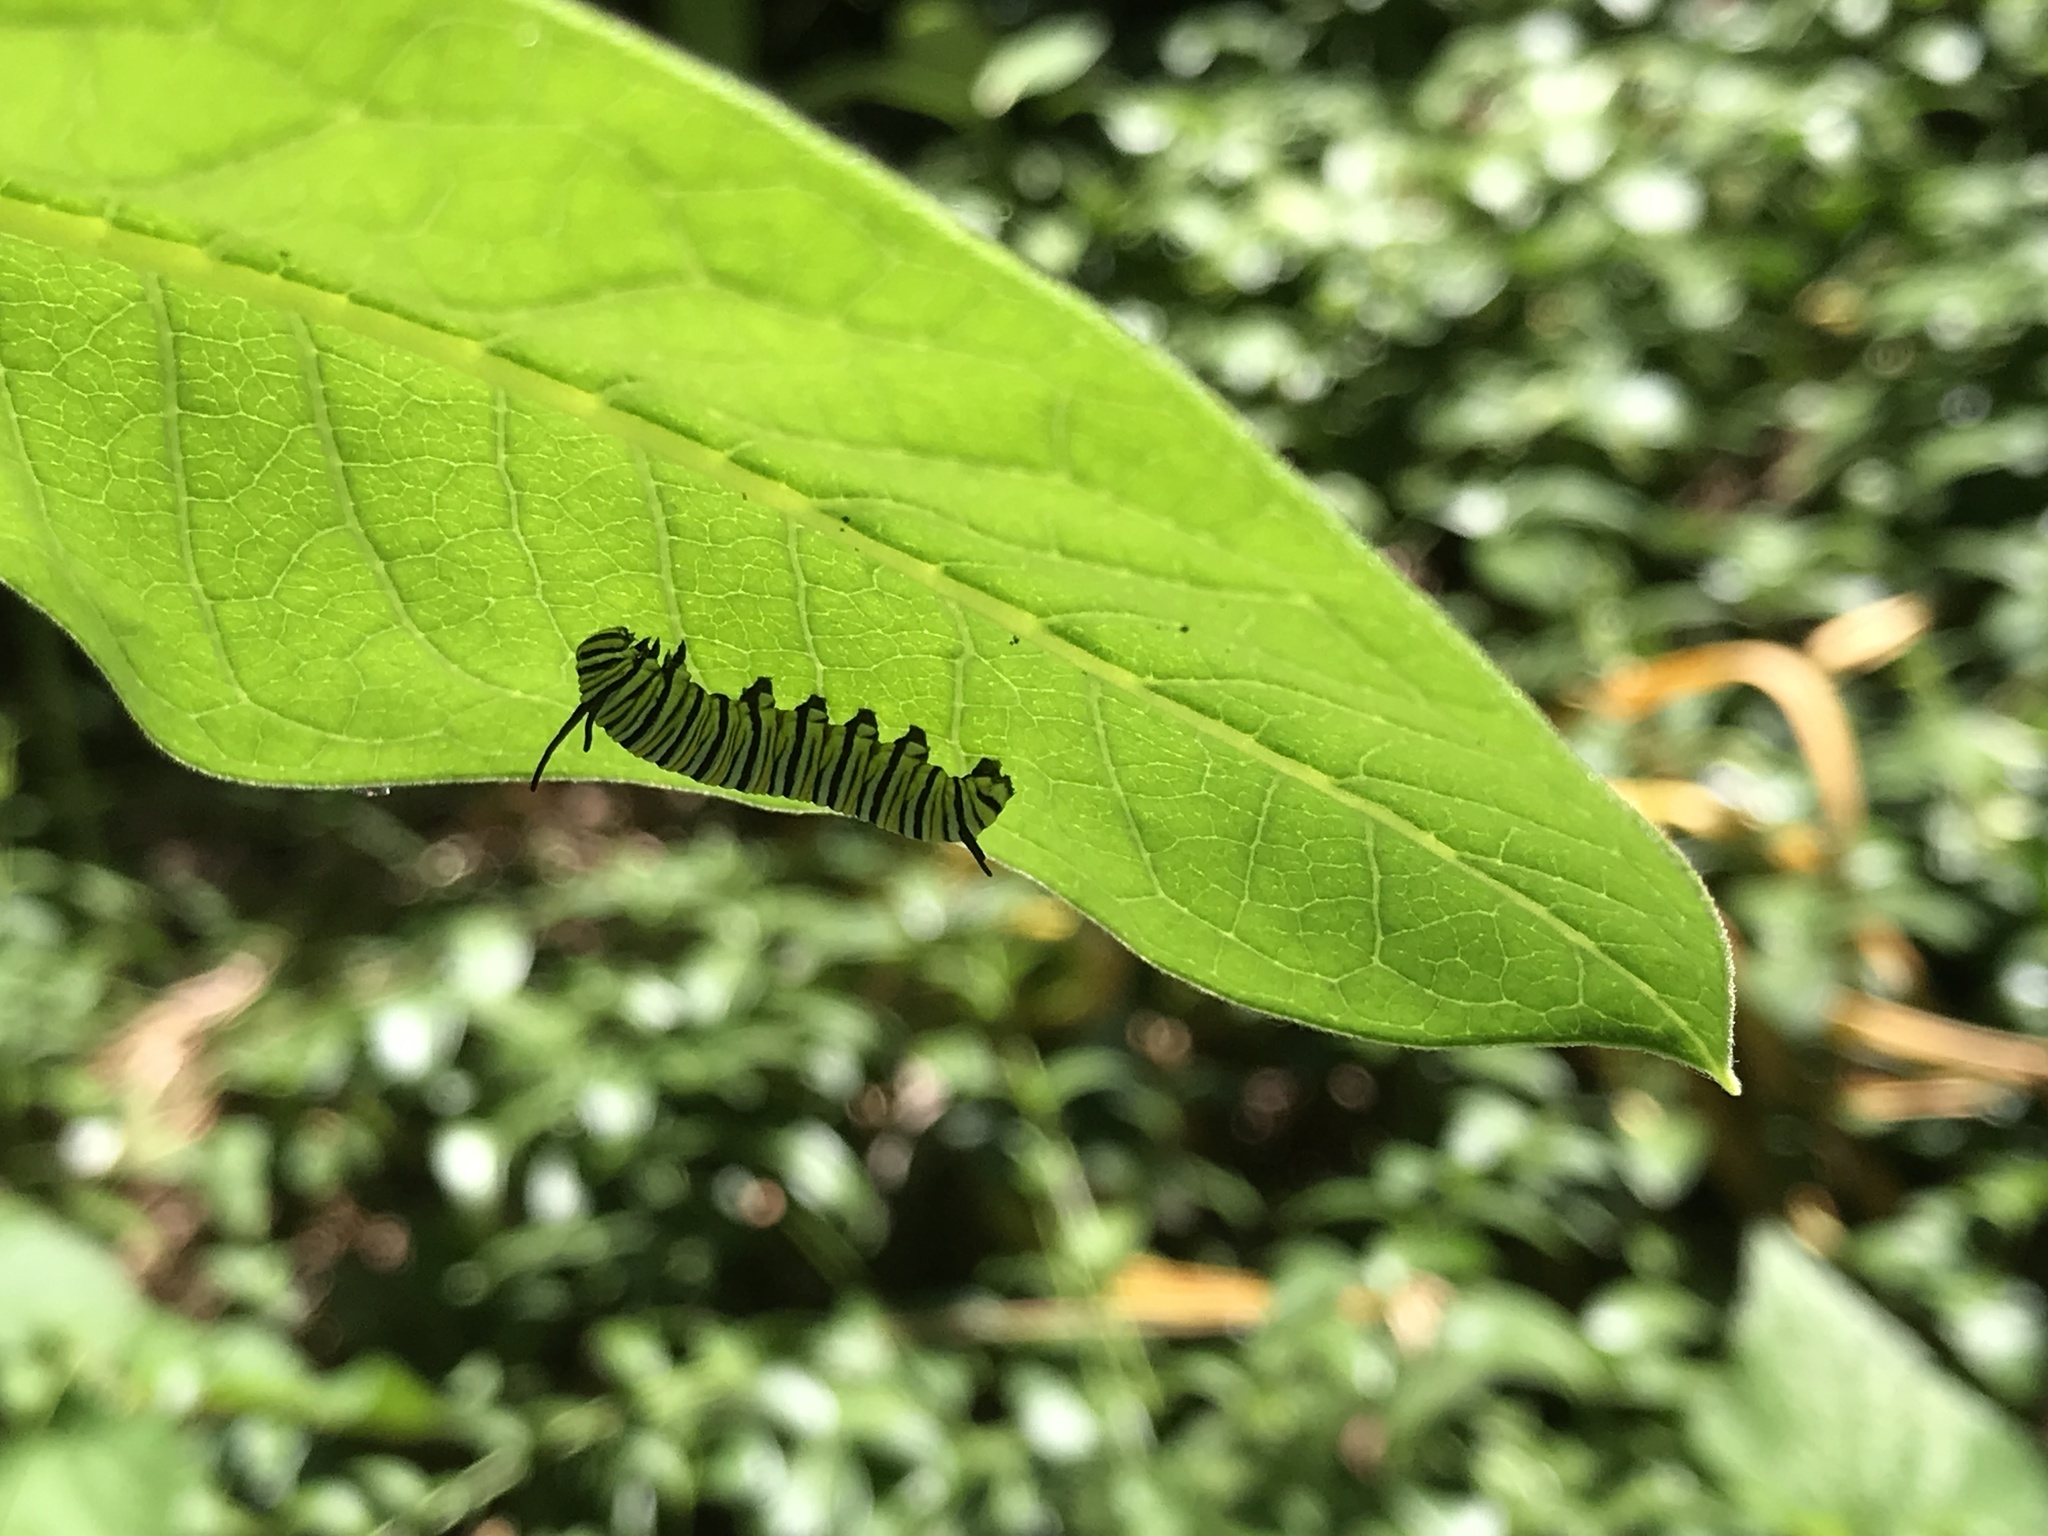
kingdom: Animalia
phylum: Arthropoda
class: Insecta
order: Lepidoptera
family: Nymphalidae
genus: Danaus
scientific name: Danaus plexippus
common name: Monarch
